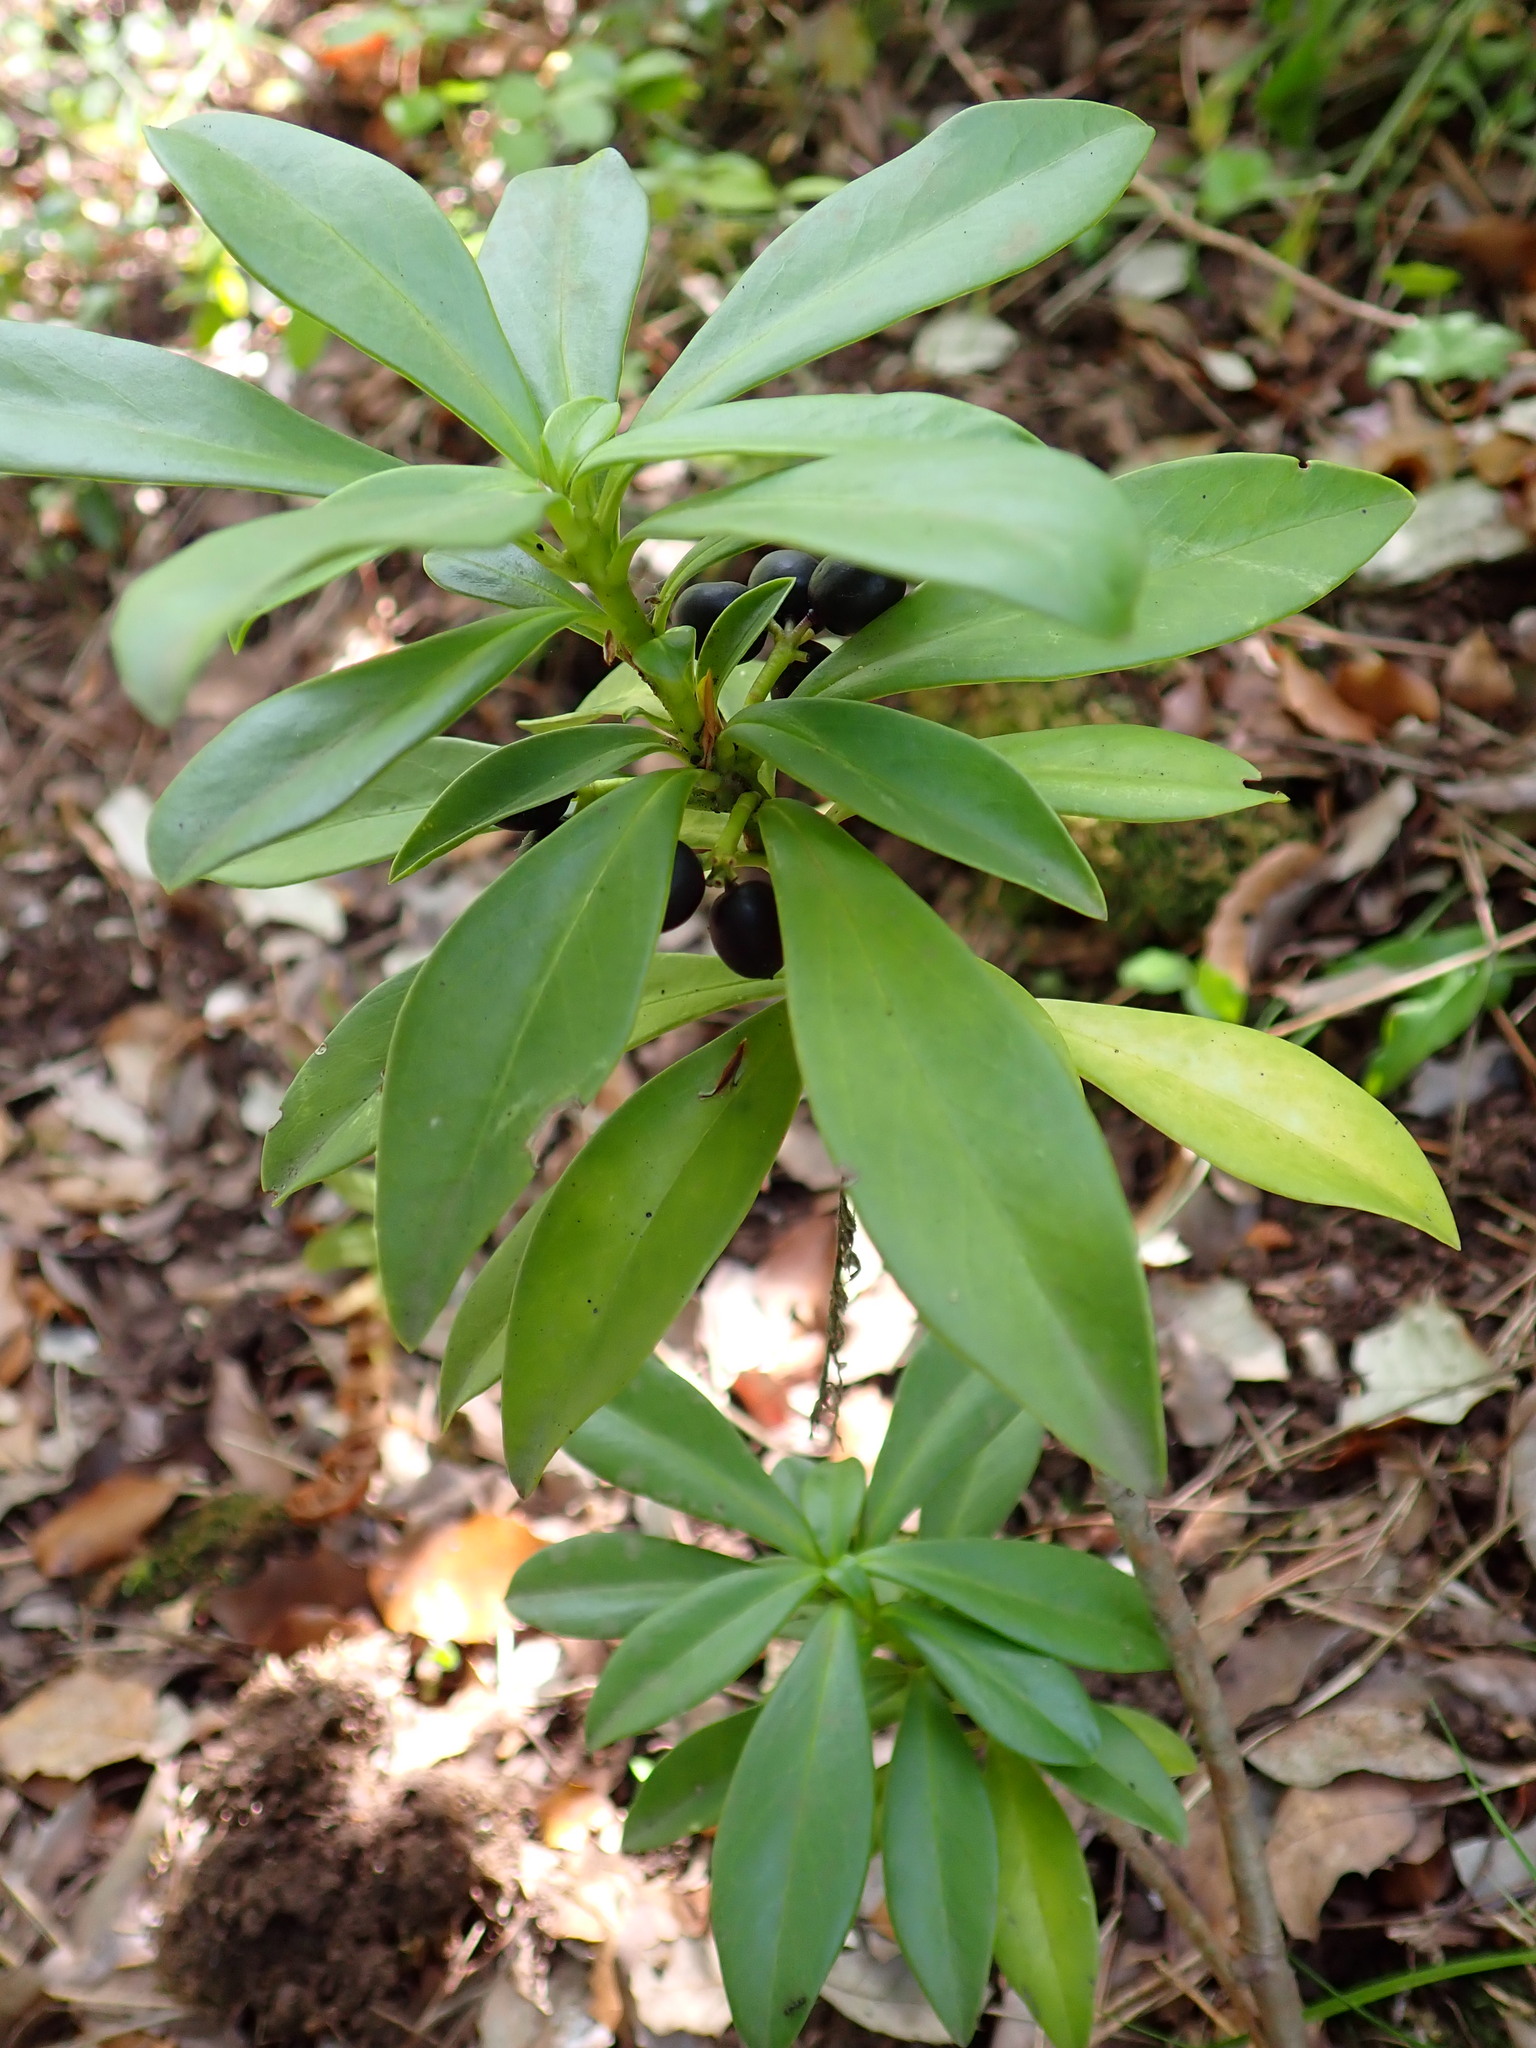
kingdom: Plantae
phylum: Tracheophyta
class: Magnoliopsida
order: Malvales
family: Thymelaeaceae
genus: Daphne
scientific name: Daphne laureola
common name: Spurge-laurel
